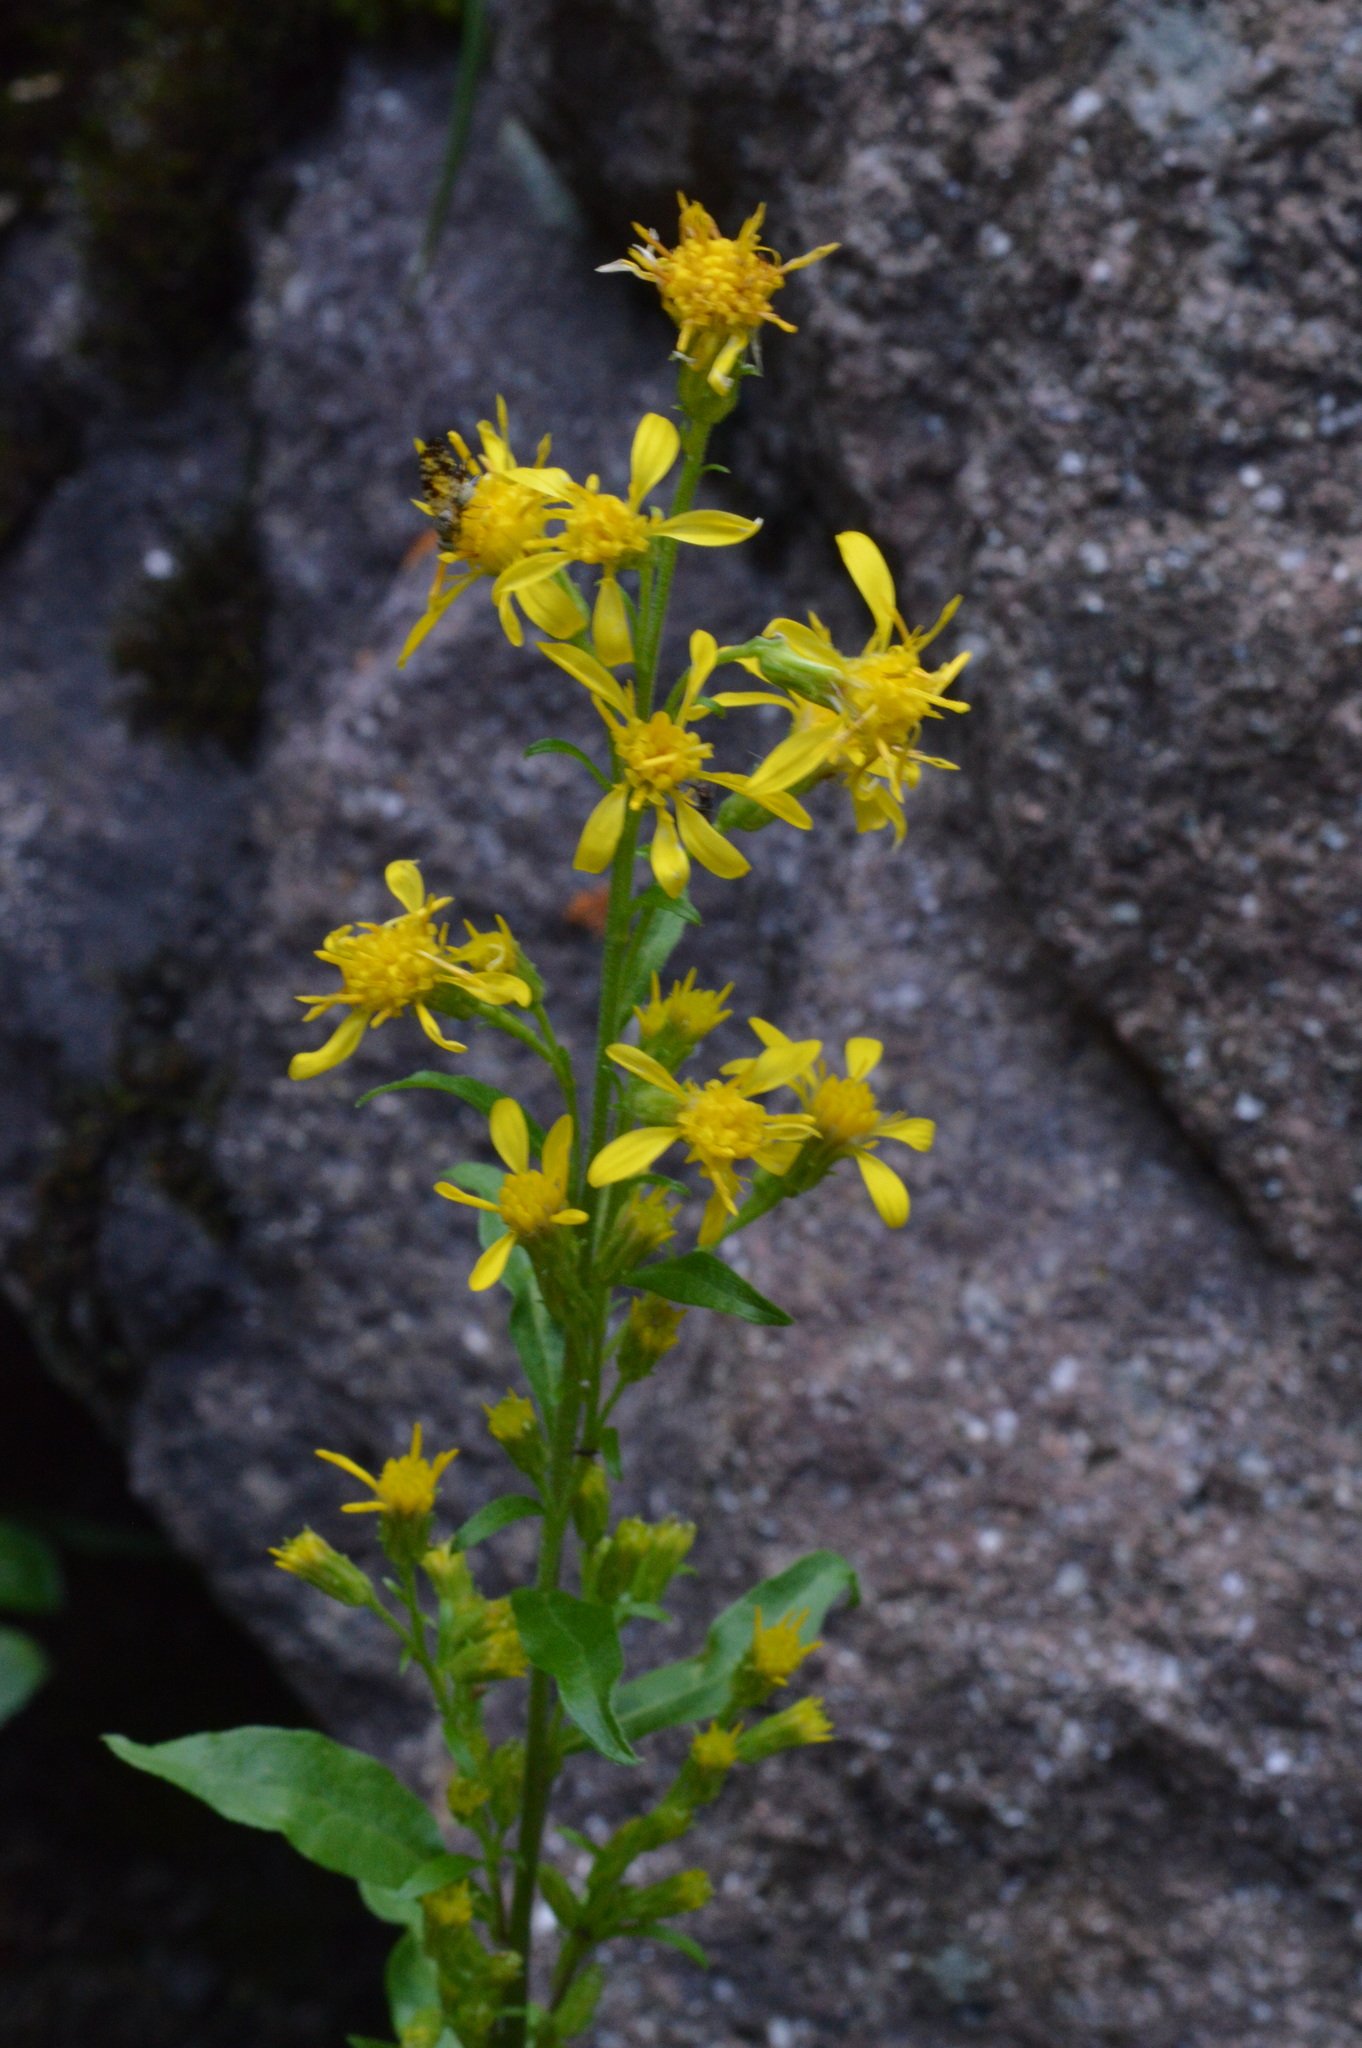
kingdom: Plantae
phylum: Tracheophyta
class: Magnoliopsida
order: Asterales
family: Asteraceae
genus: Solidago
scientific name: Solidago virgaurea
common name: Goldenrod
